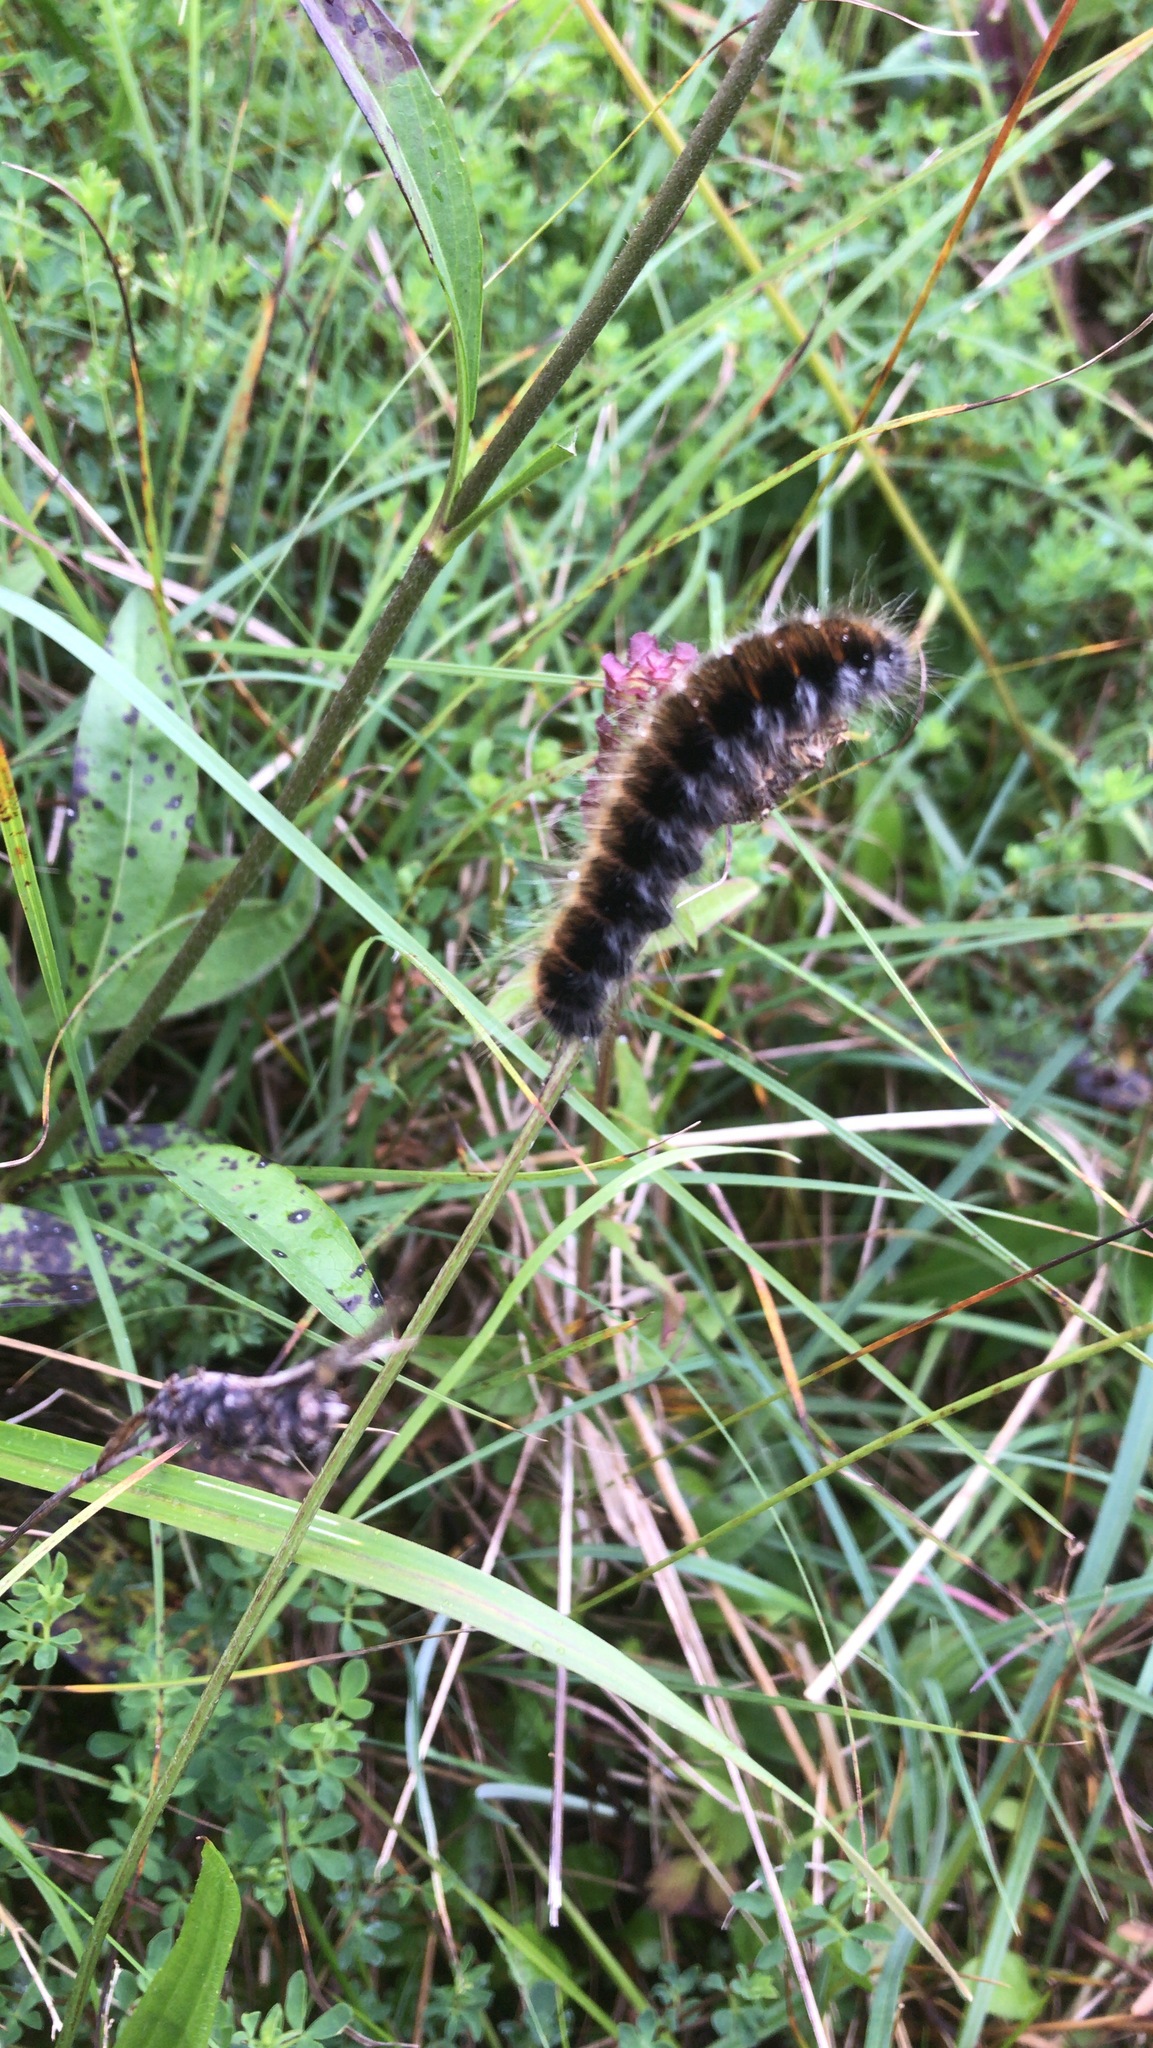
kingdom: Animalia
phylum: Arthropoda
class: Insecta
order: Lepidoptera
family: Lasiocampidae
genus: Macrothylacia
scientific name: Macrothylacia rubi
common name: Fox moth
